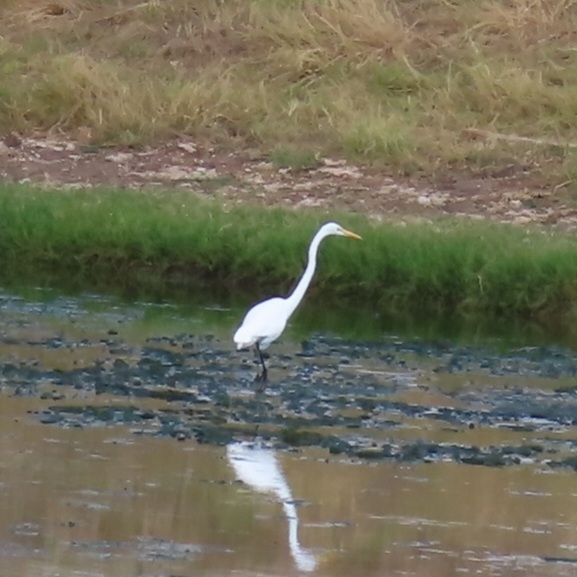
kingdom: Animalia
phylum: Chordata
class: Aves
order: Pelecaniformes
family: Ardeidae
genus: Ardea
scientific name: Ardea alba
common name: Great egret
